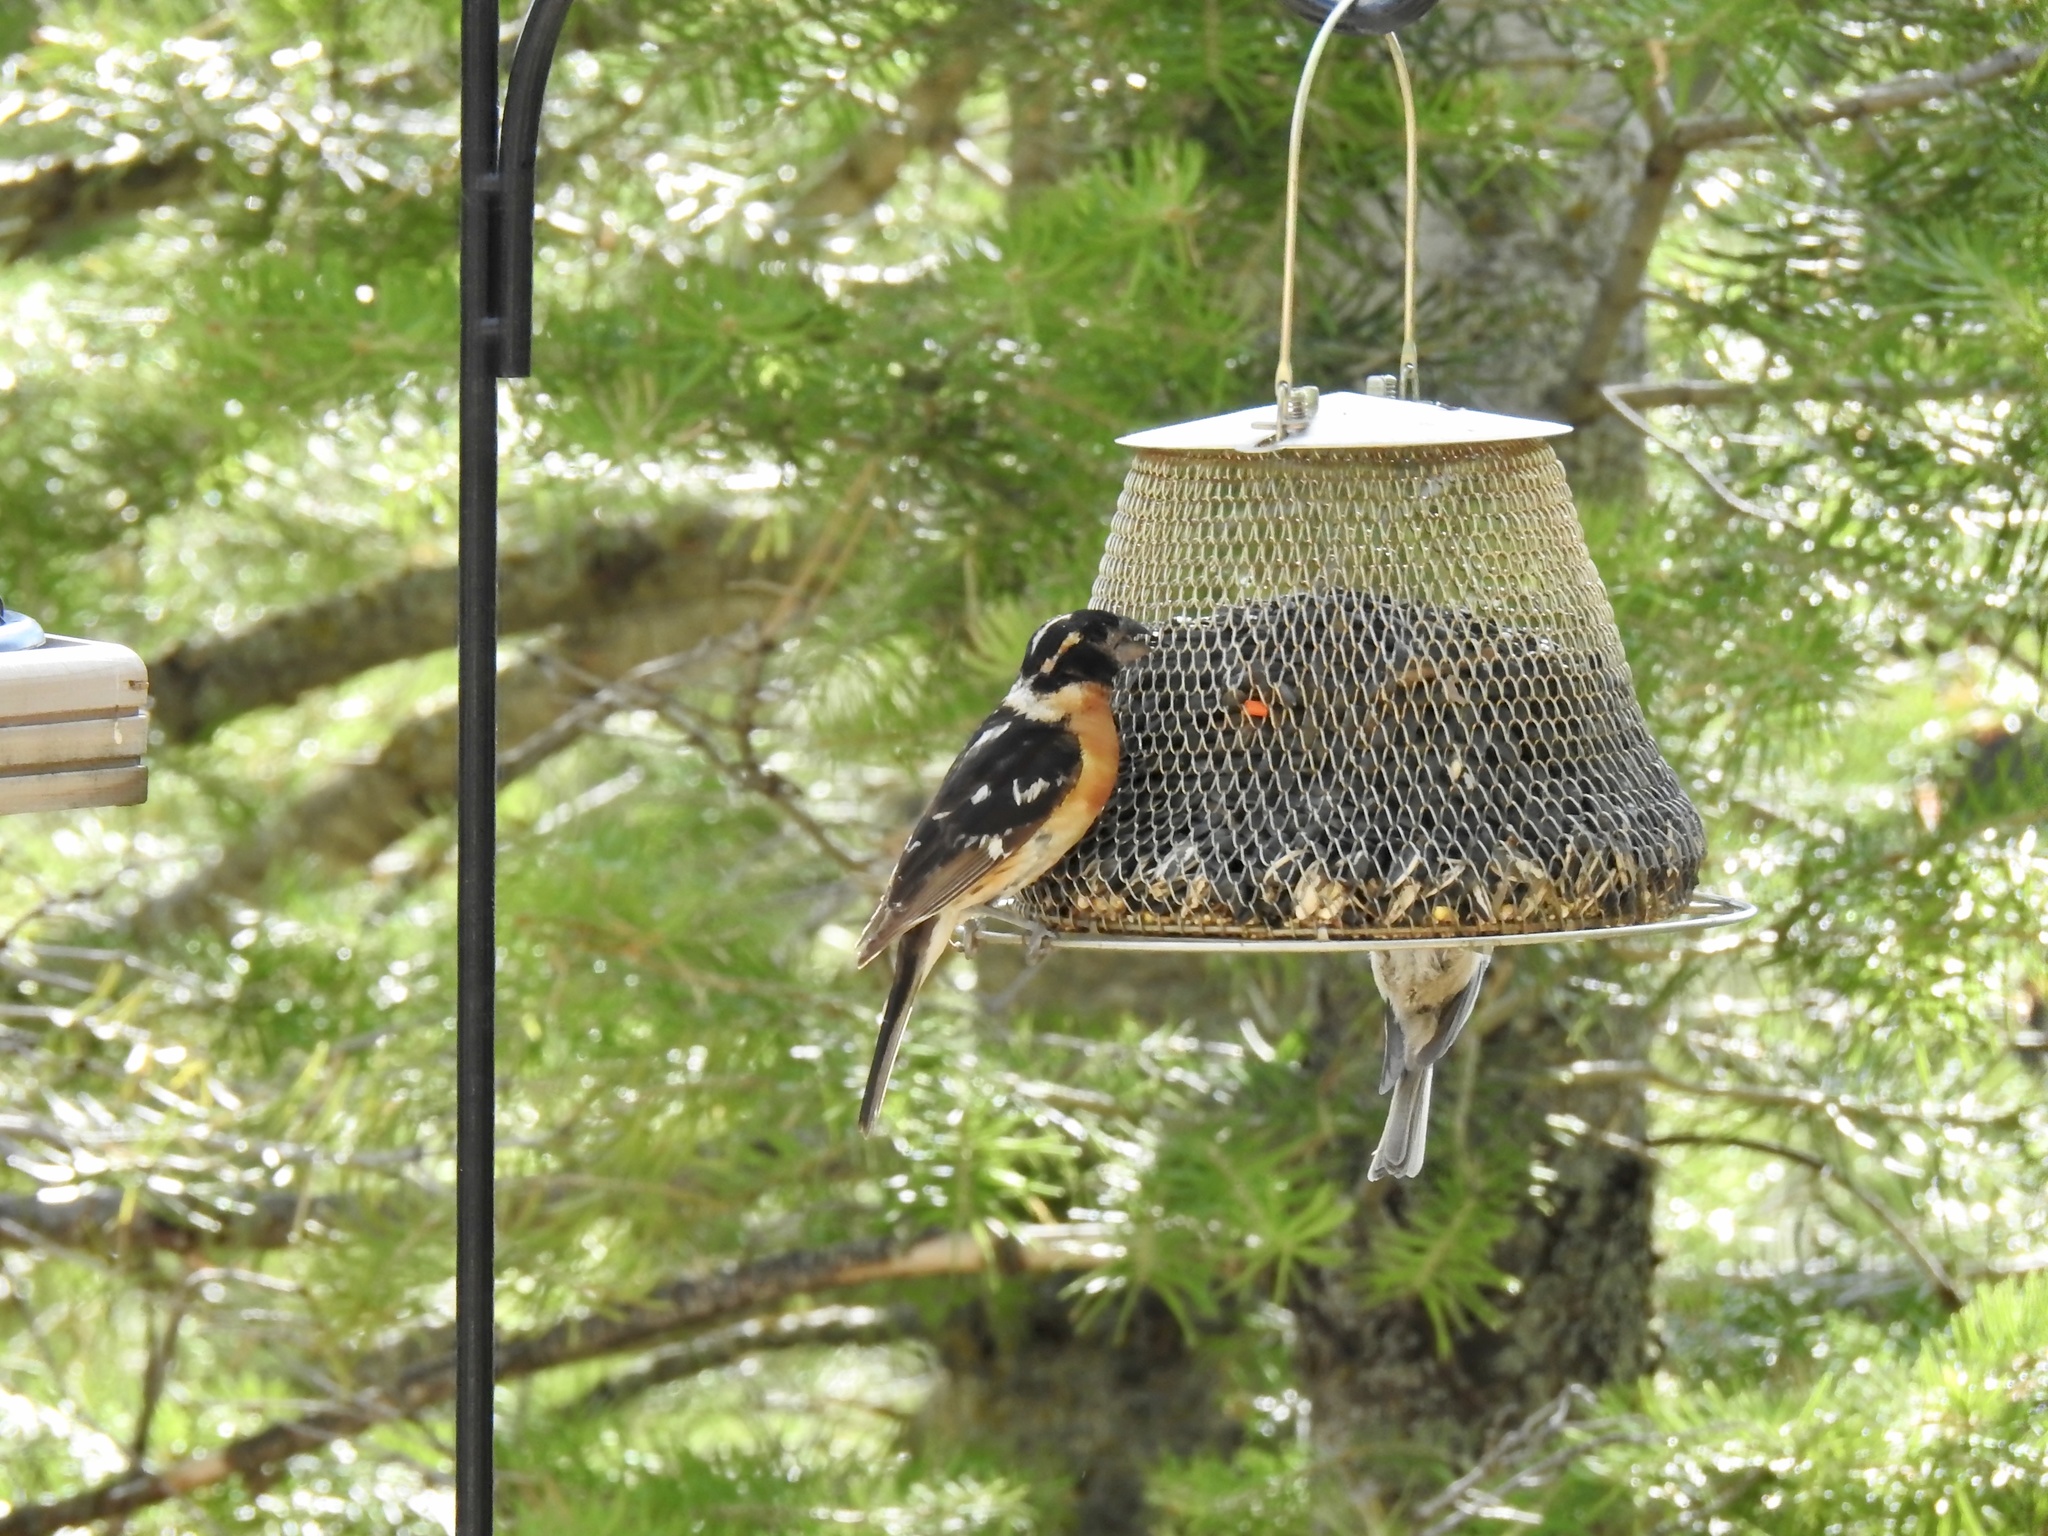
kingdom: Animalia
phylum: Chordata
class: Aves
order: Passeriformes
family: Cardinalidae
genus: Pheucticus
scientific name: Pheucticus melanocephalus
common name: Black-headed grosbeak
